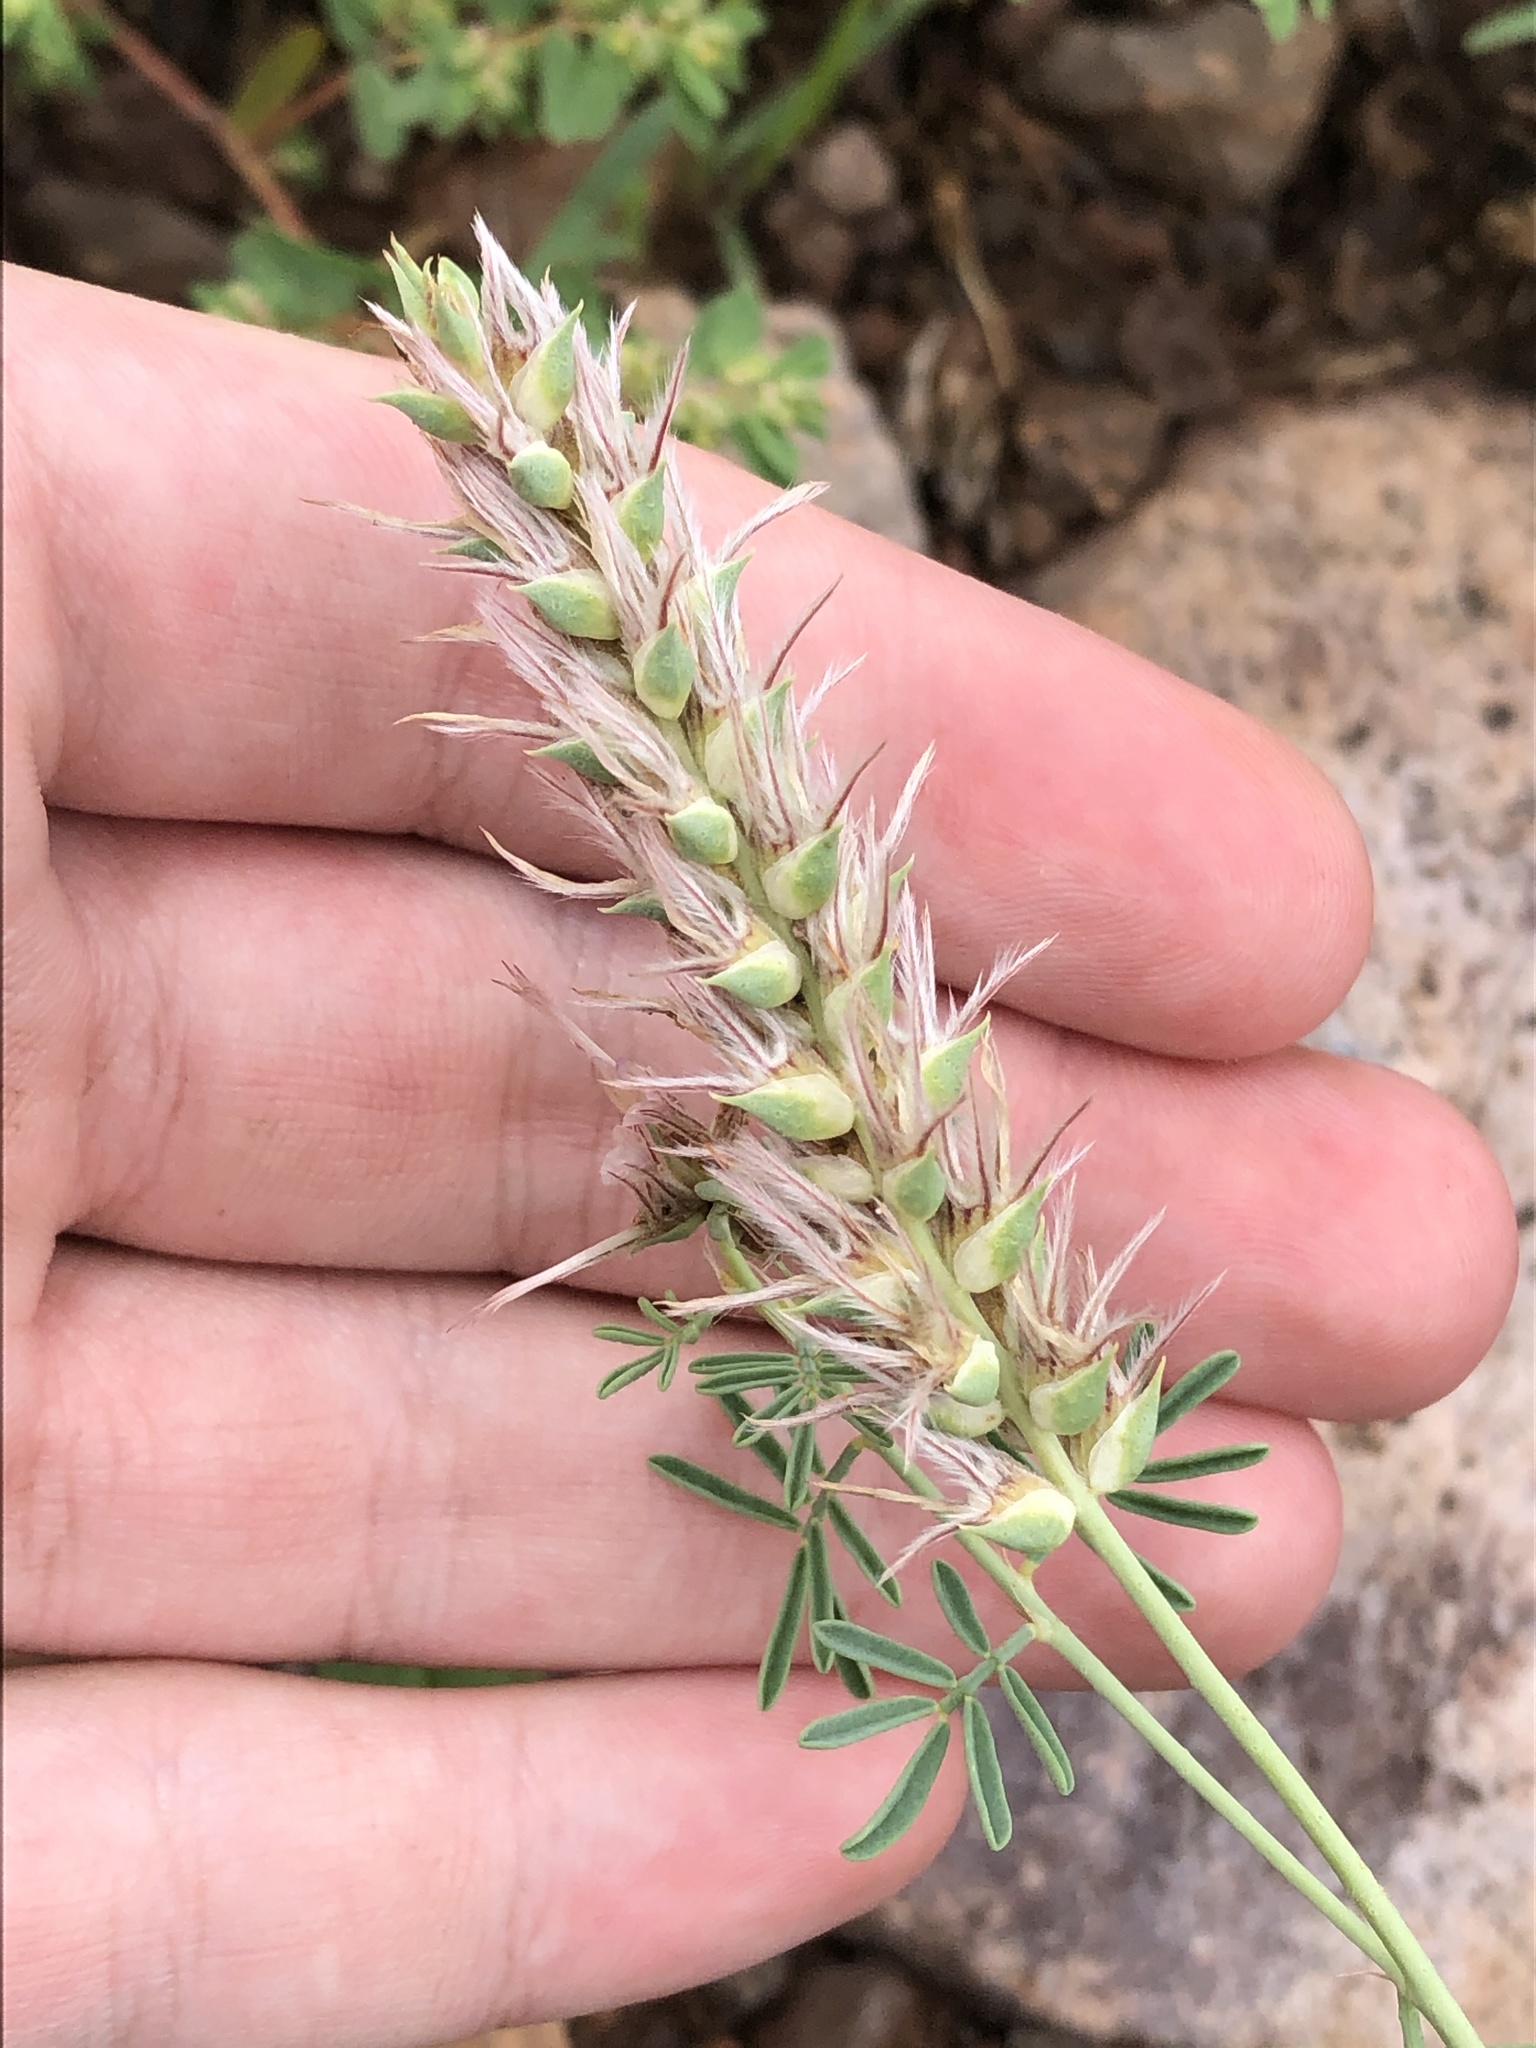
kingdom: Plantae
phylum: Tracheophyta
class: Magnoliopsida
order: Fabales
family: Fabaceae
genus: Dalea
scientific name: Dalea pogonathera
